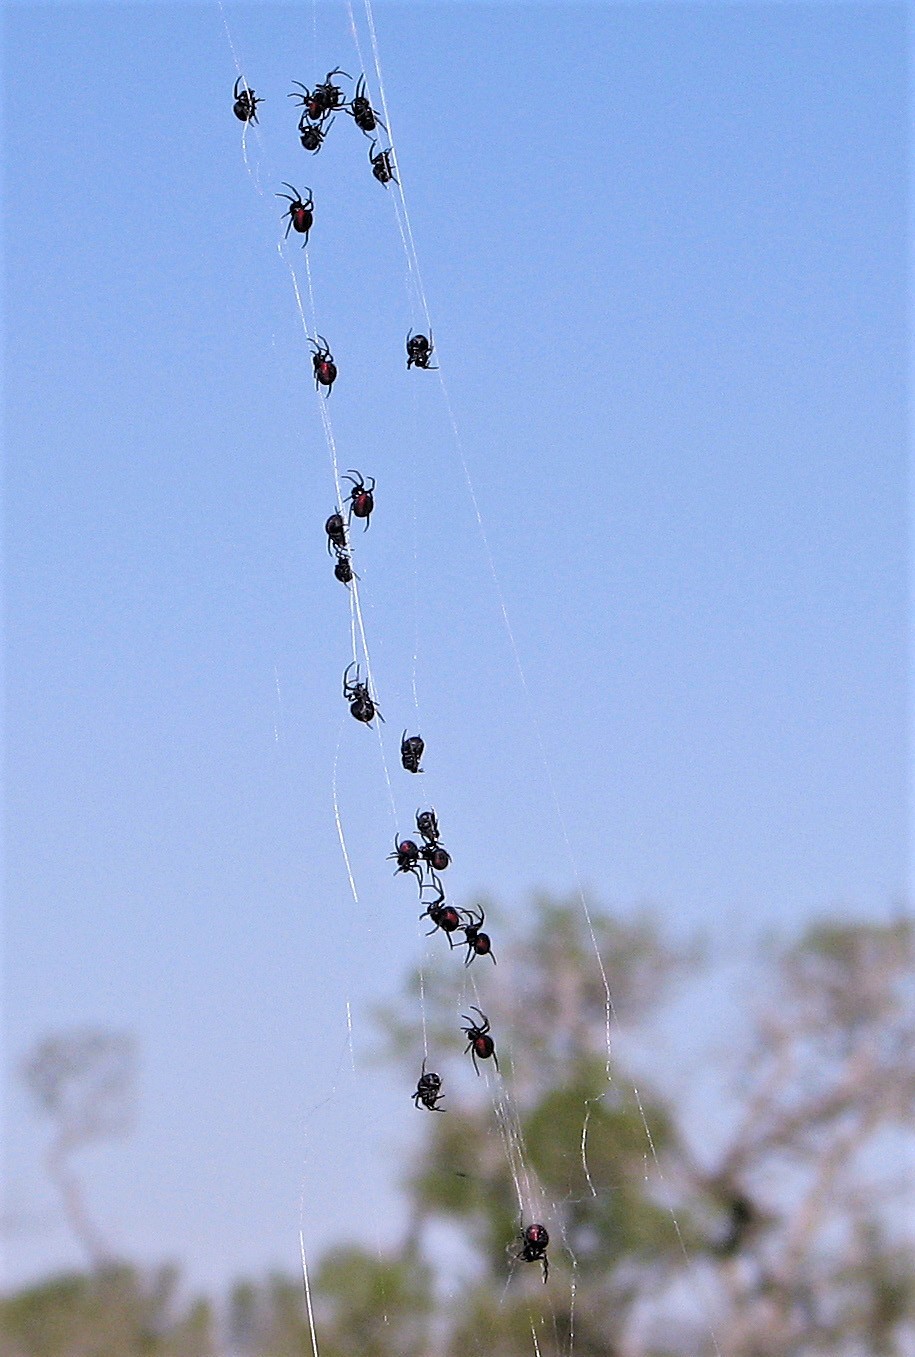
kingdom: Animalia
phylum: Arthropoda
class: Arachnida
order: Araneae
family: Araneidae
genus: Parawixia
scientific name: Parawixia bistriata
